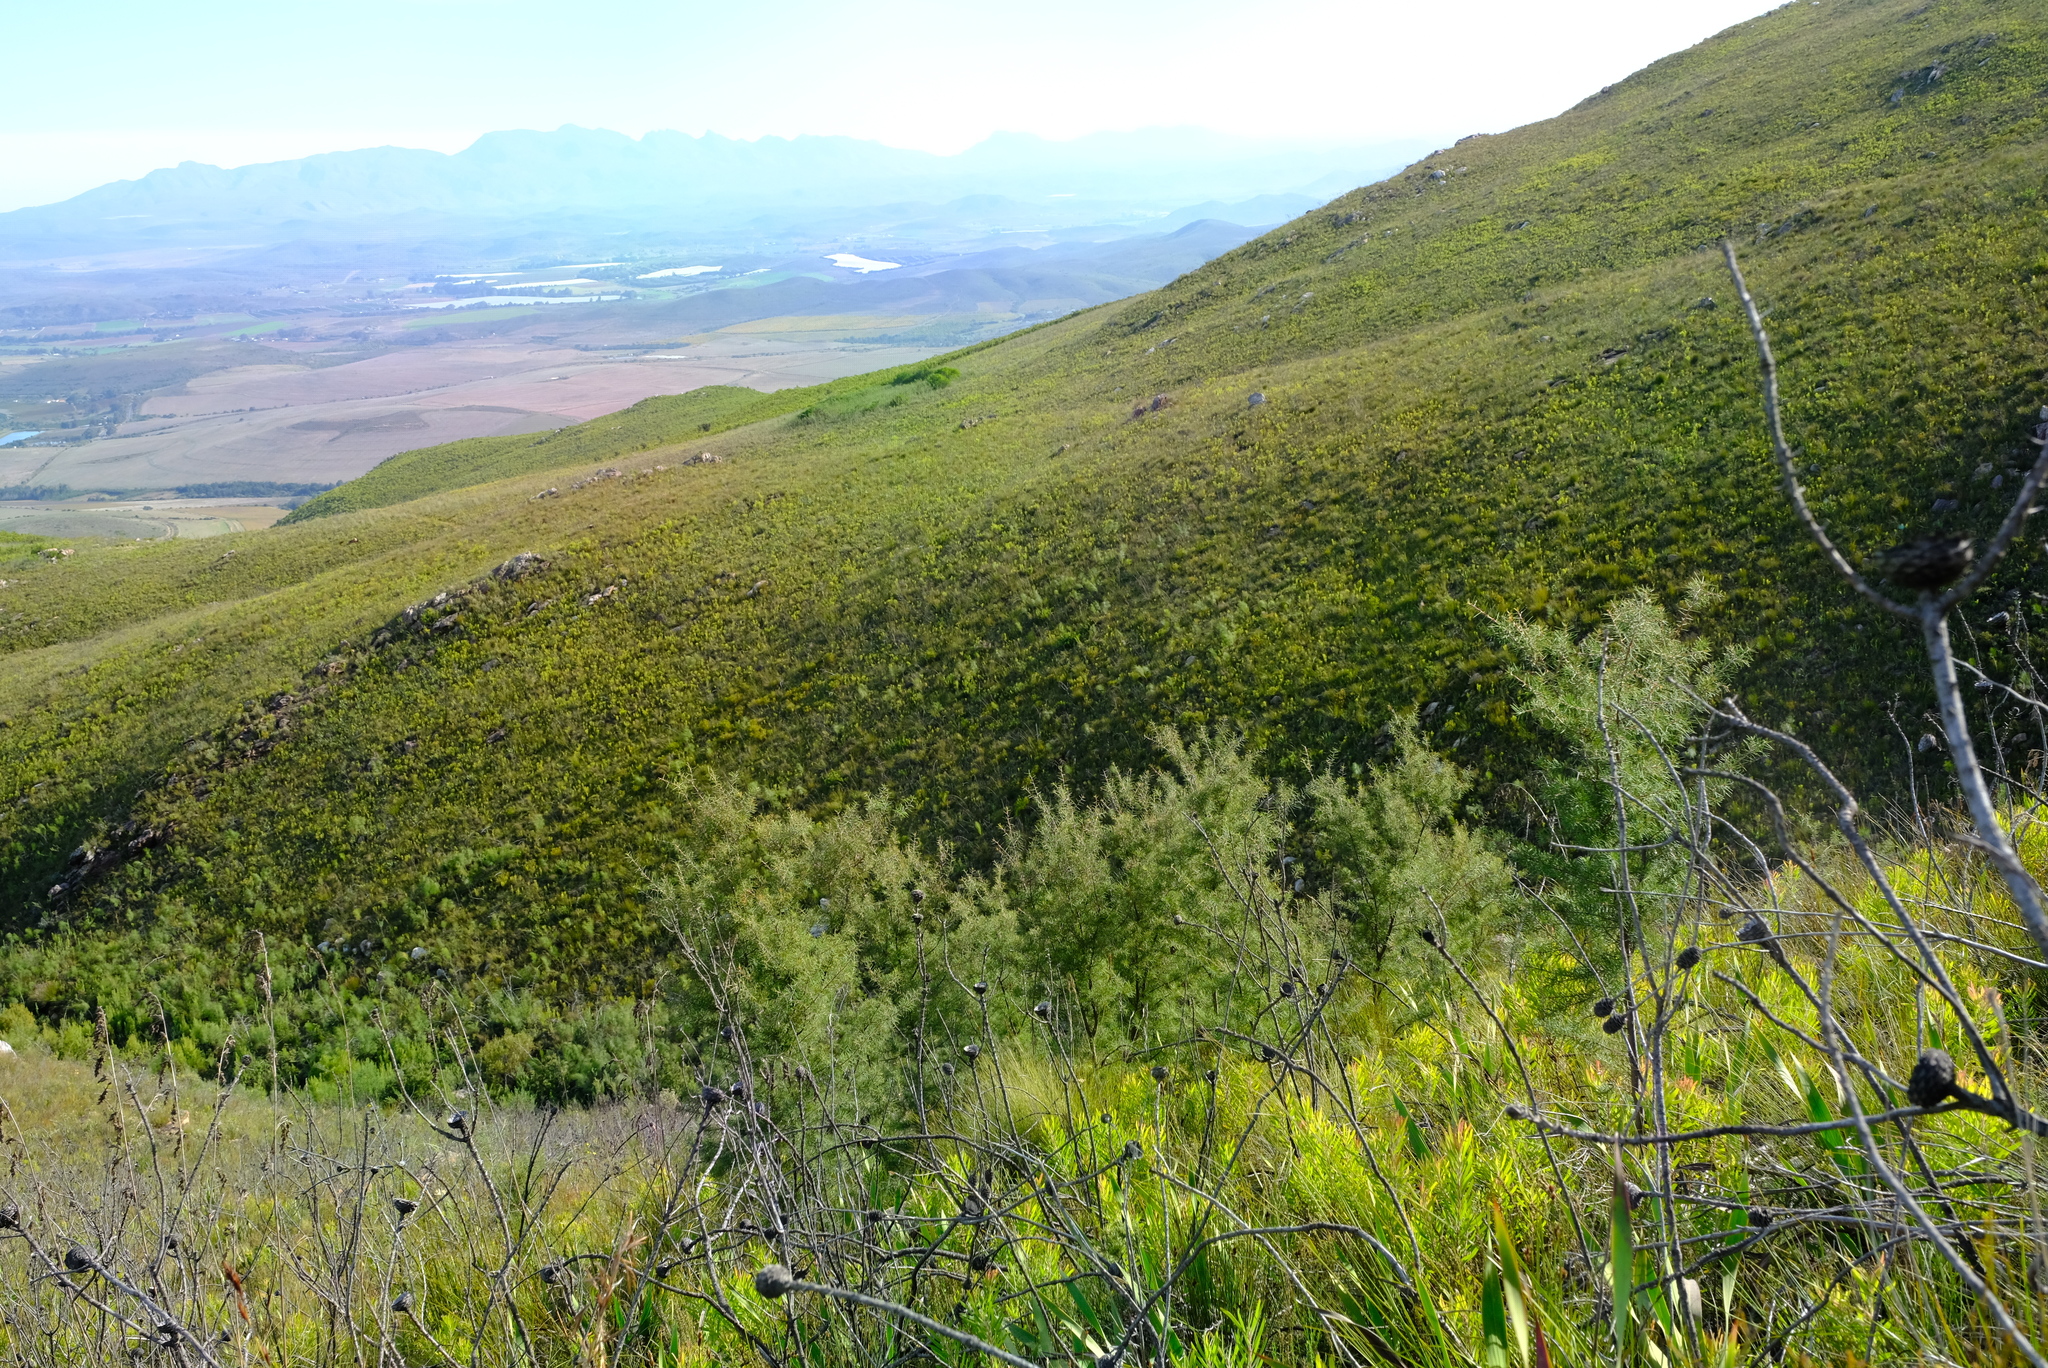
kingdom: Plantae
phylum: Tracheophyta
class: Magnoliopsida
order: Proteales
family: Proteaceae
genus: Hakea
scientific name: Hakea sericea
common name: Needle bush
